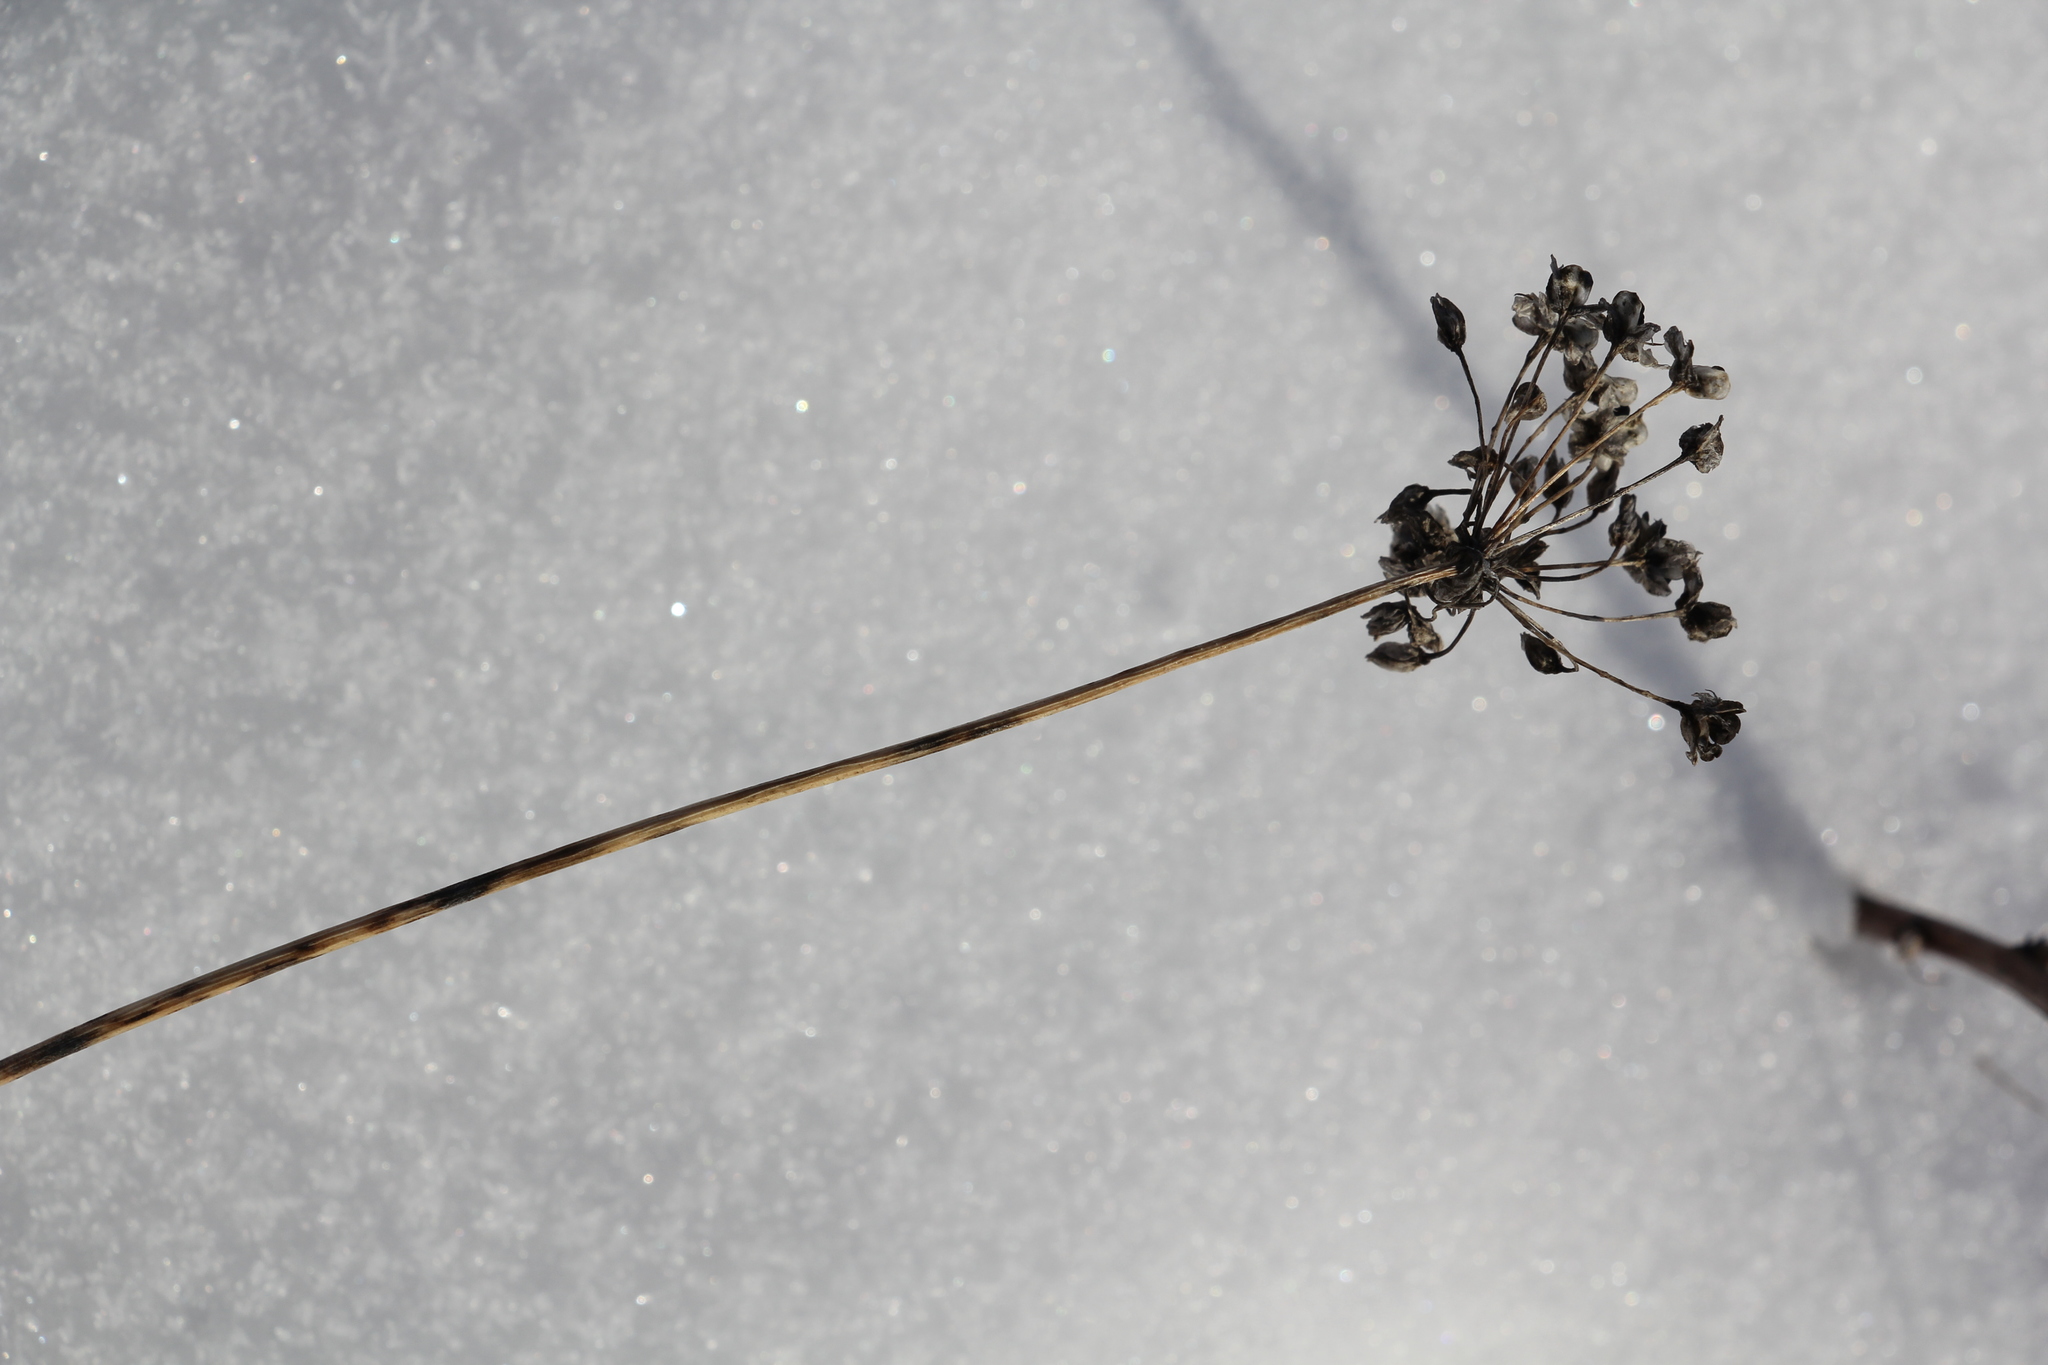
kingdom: Plantae
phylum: Tracheophyta
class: Liliopsida
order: Asparagales
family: Amaryllidaceae
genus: Allium
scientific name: Allium rubens
